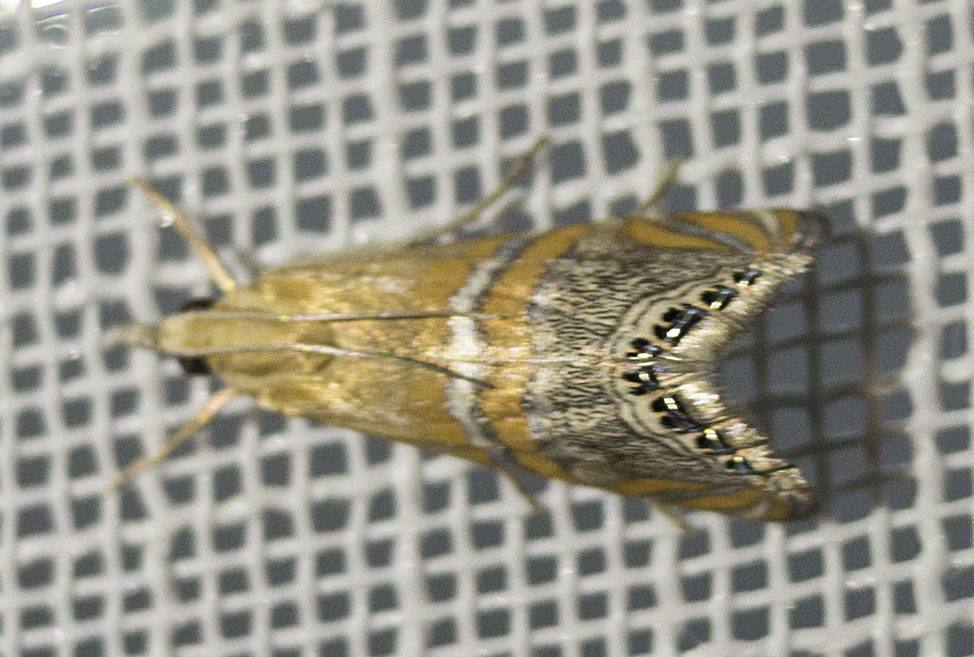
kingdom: Animalia
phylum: Arthropoda
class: Insecta
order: Lepidoptera
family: Crambidae
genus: Euchromius
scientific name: Euchromius bella
